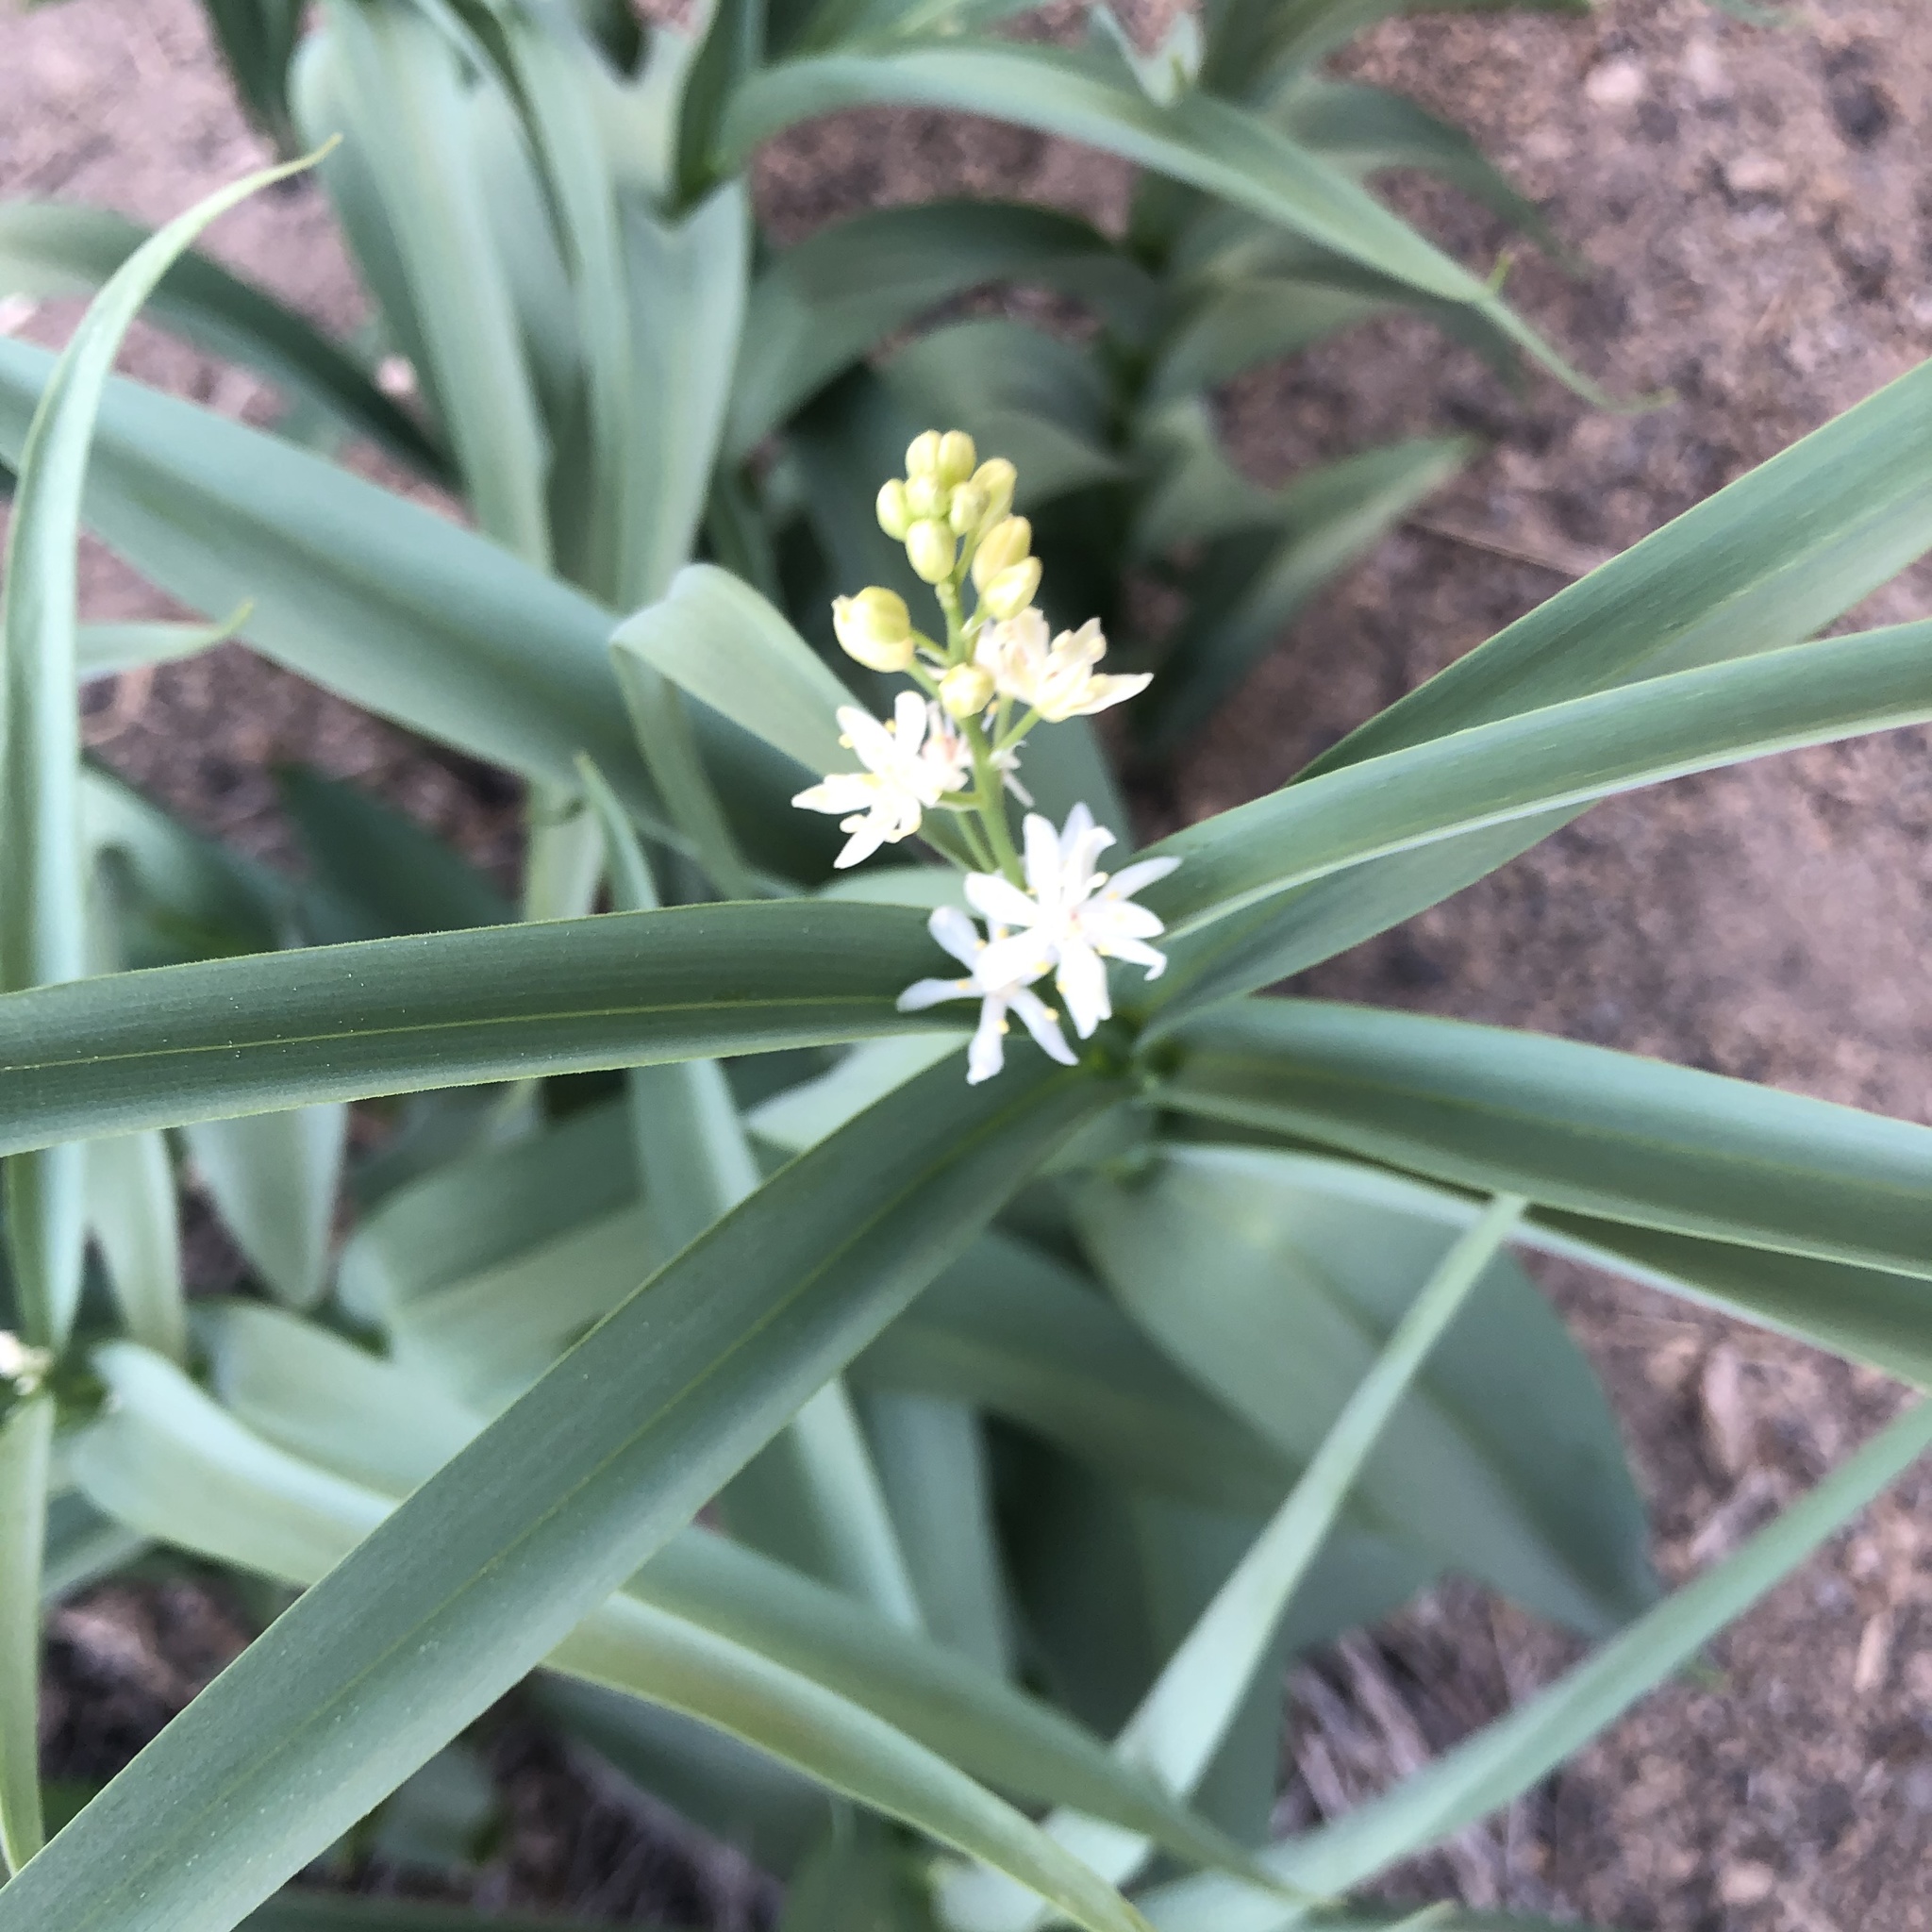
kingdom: Plantae
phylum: Tracheophyta
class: Liliopsida
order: Liliales
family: Melanthiaceae
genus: Toxicoscordion
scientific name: Toxicoscordion paniculatum
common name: Foothill death camas
